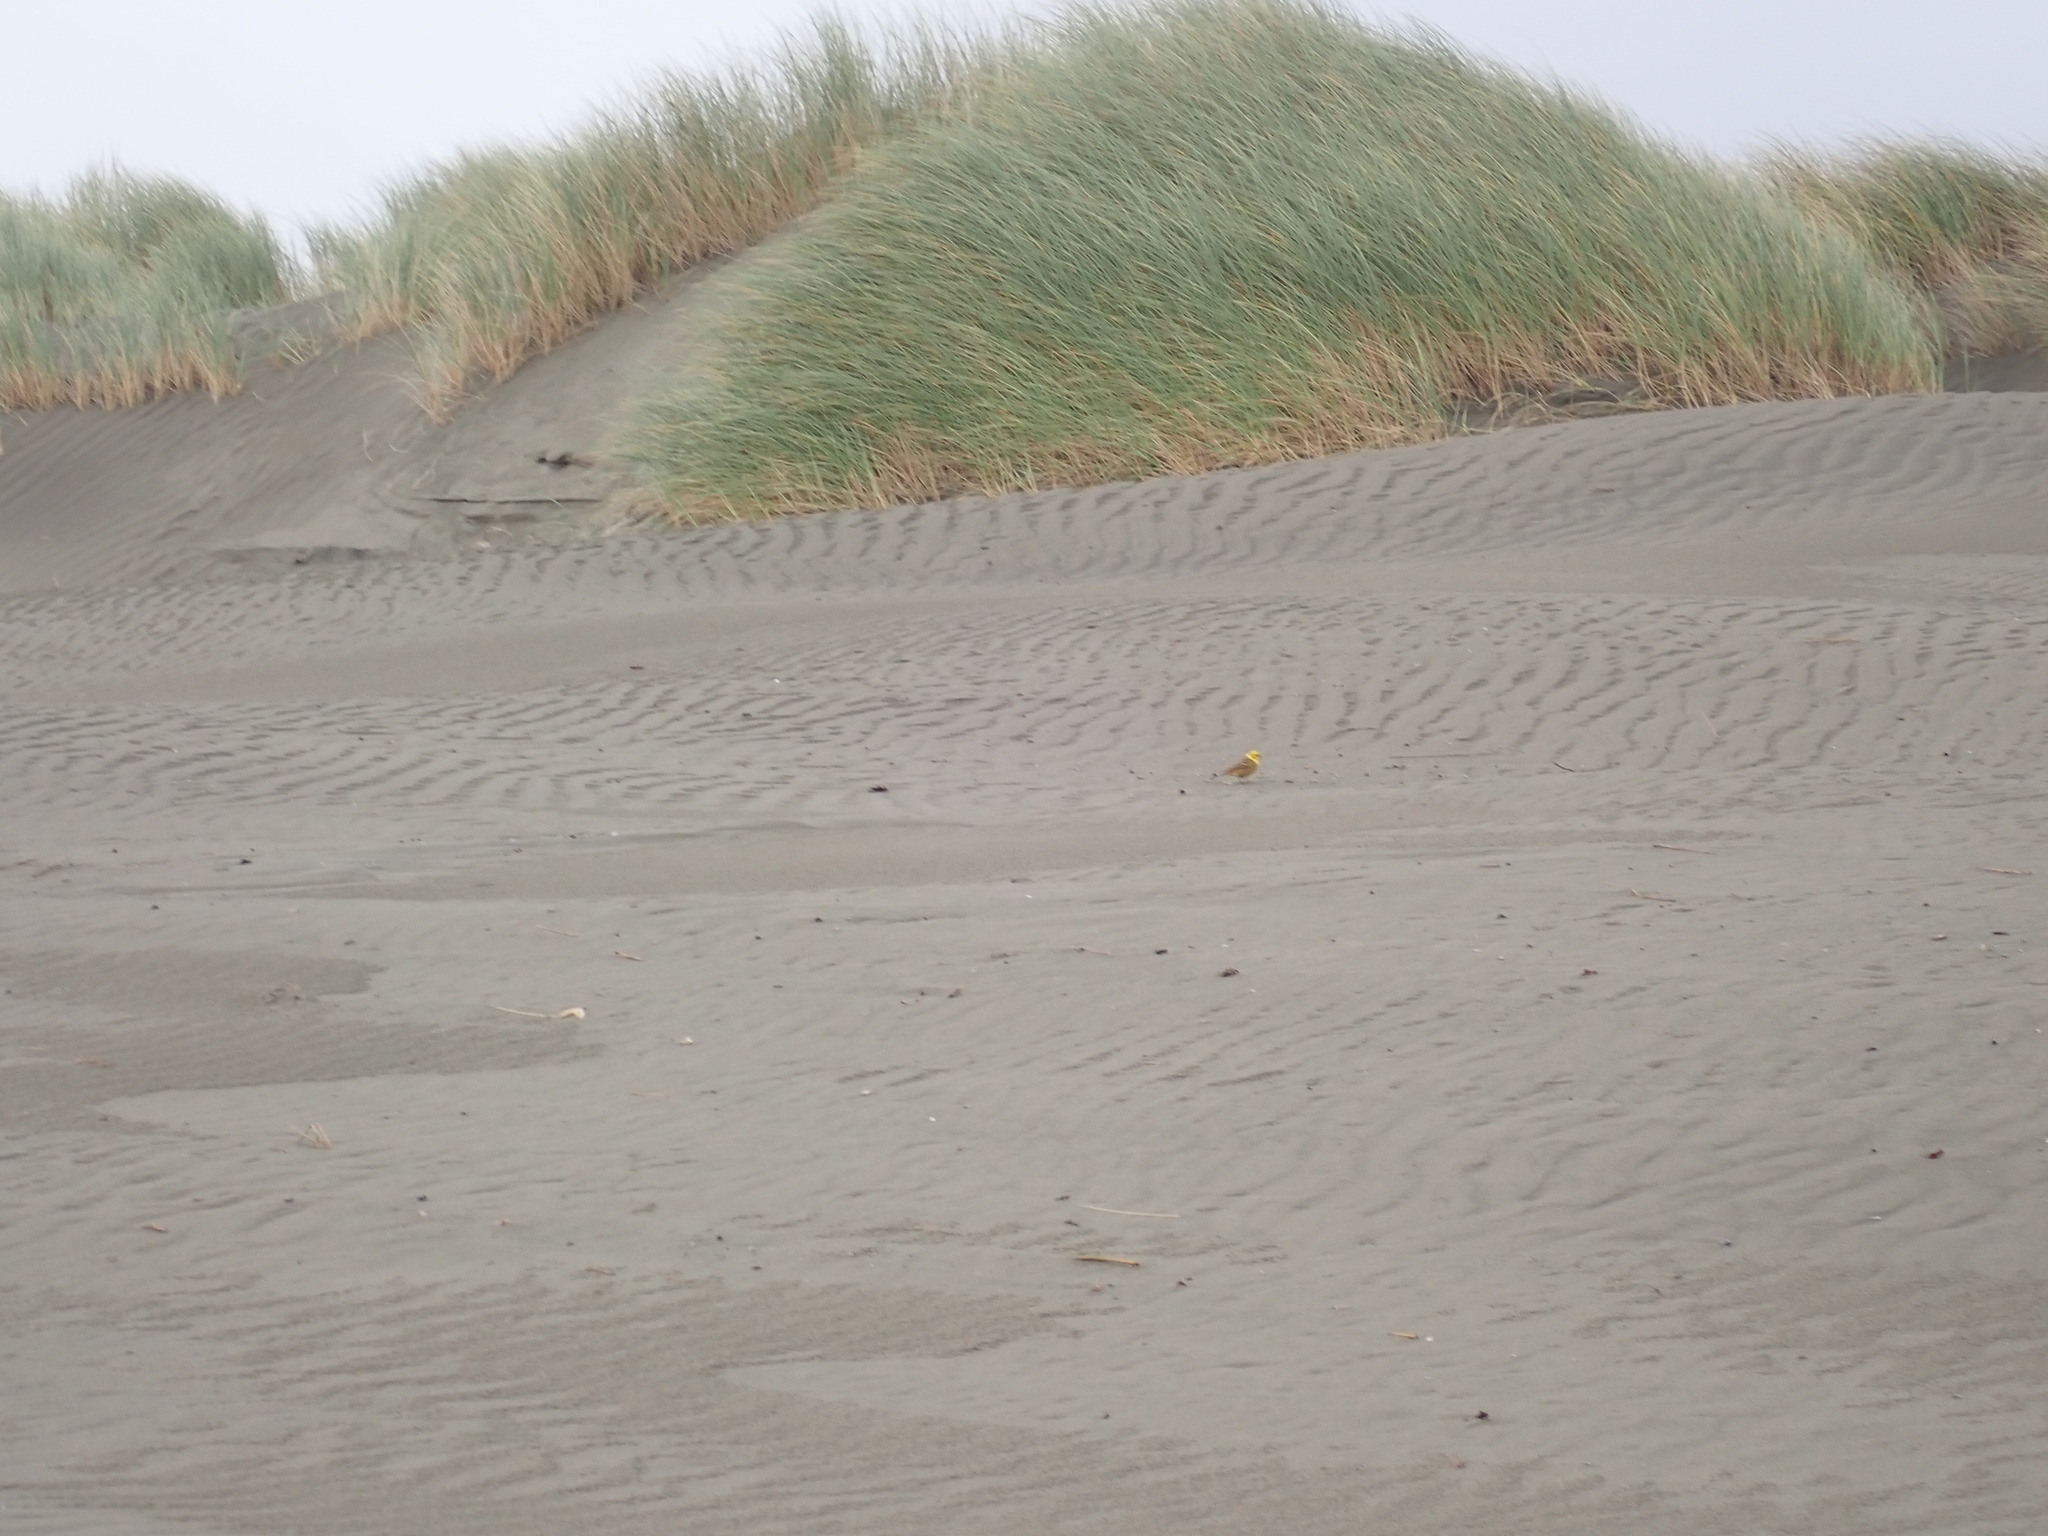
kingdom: Animalia
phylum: Chordata
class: Aves
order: Passeriformes
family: Emberizidae
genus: Emberiza
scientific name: Emberiza citrinella
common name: Yellowhammer
